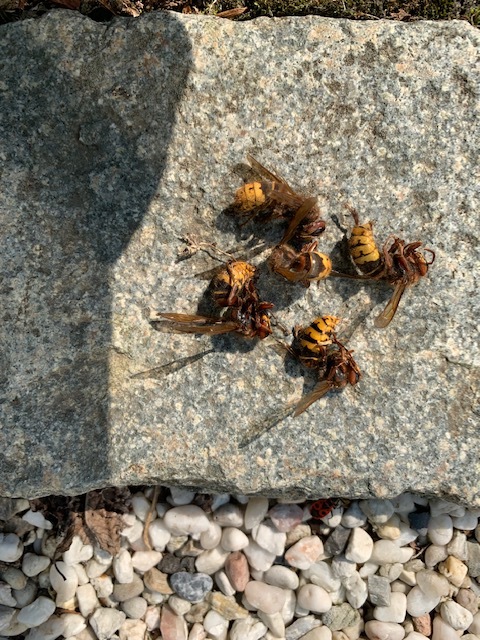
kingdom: Animalia
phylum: Arthropoda
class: Insecta
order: Hymenoptera
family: Vespidae
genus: Vespa
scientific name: Vespa crabro
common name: Hornet
